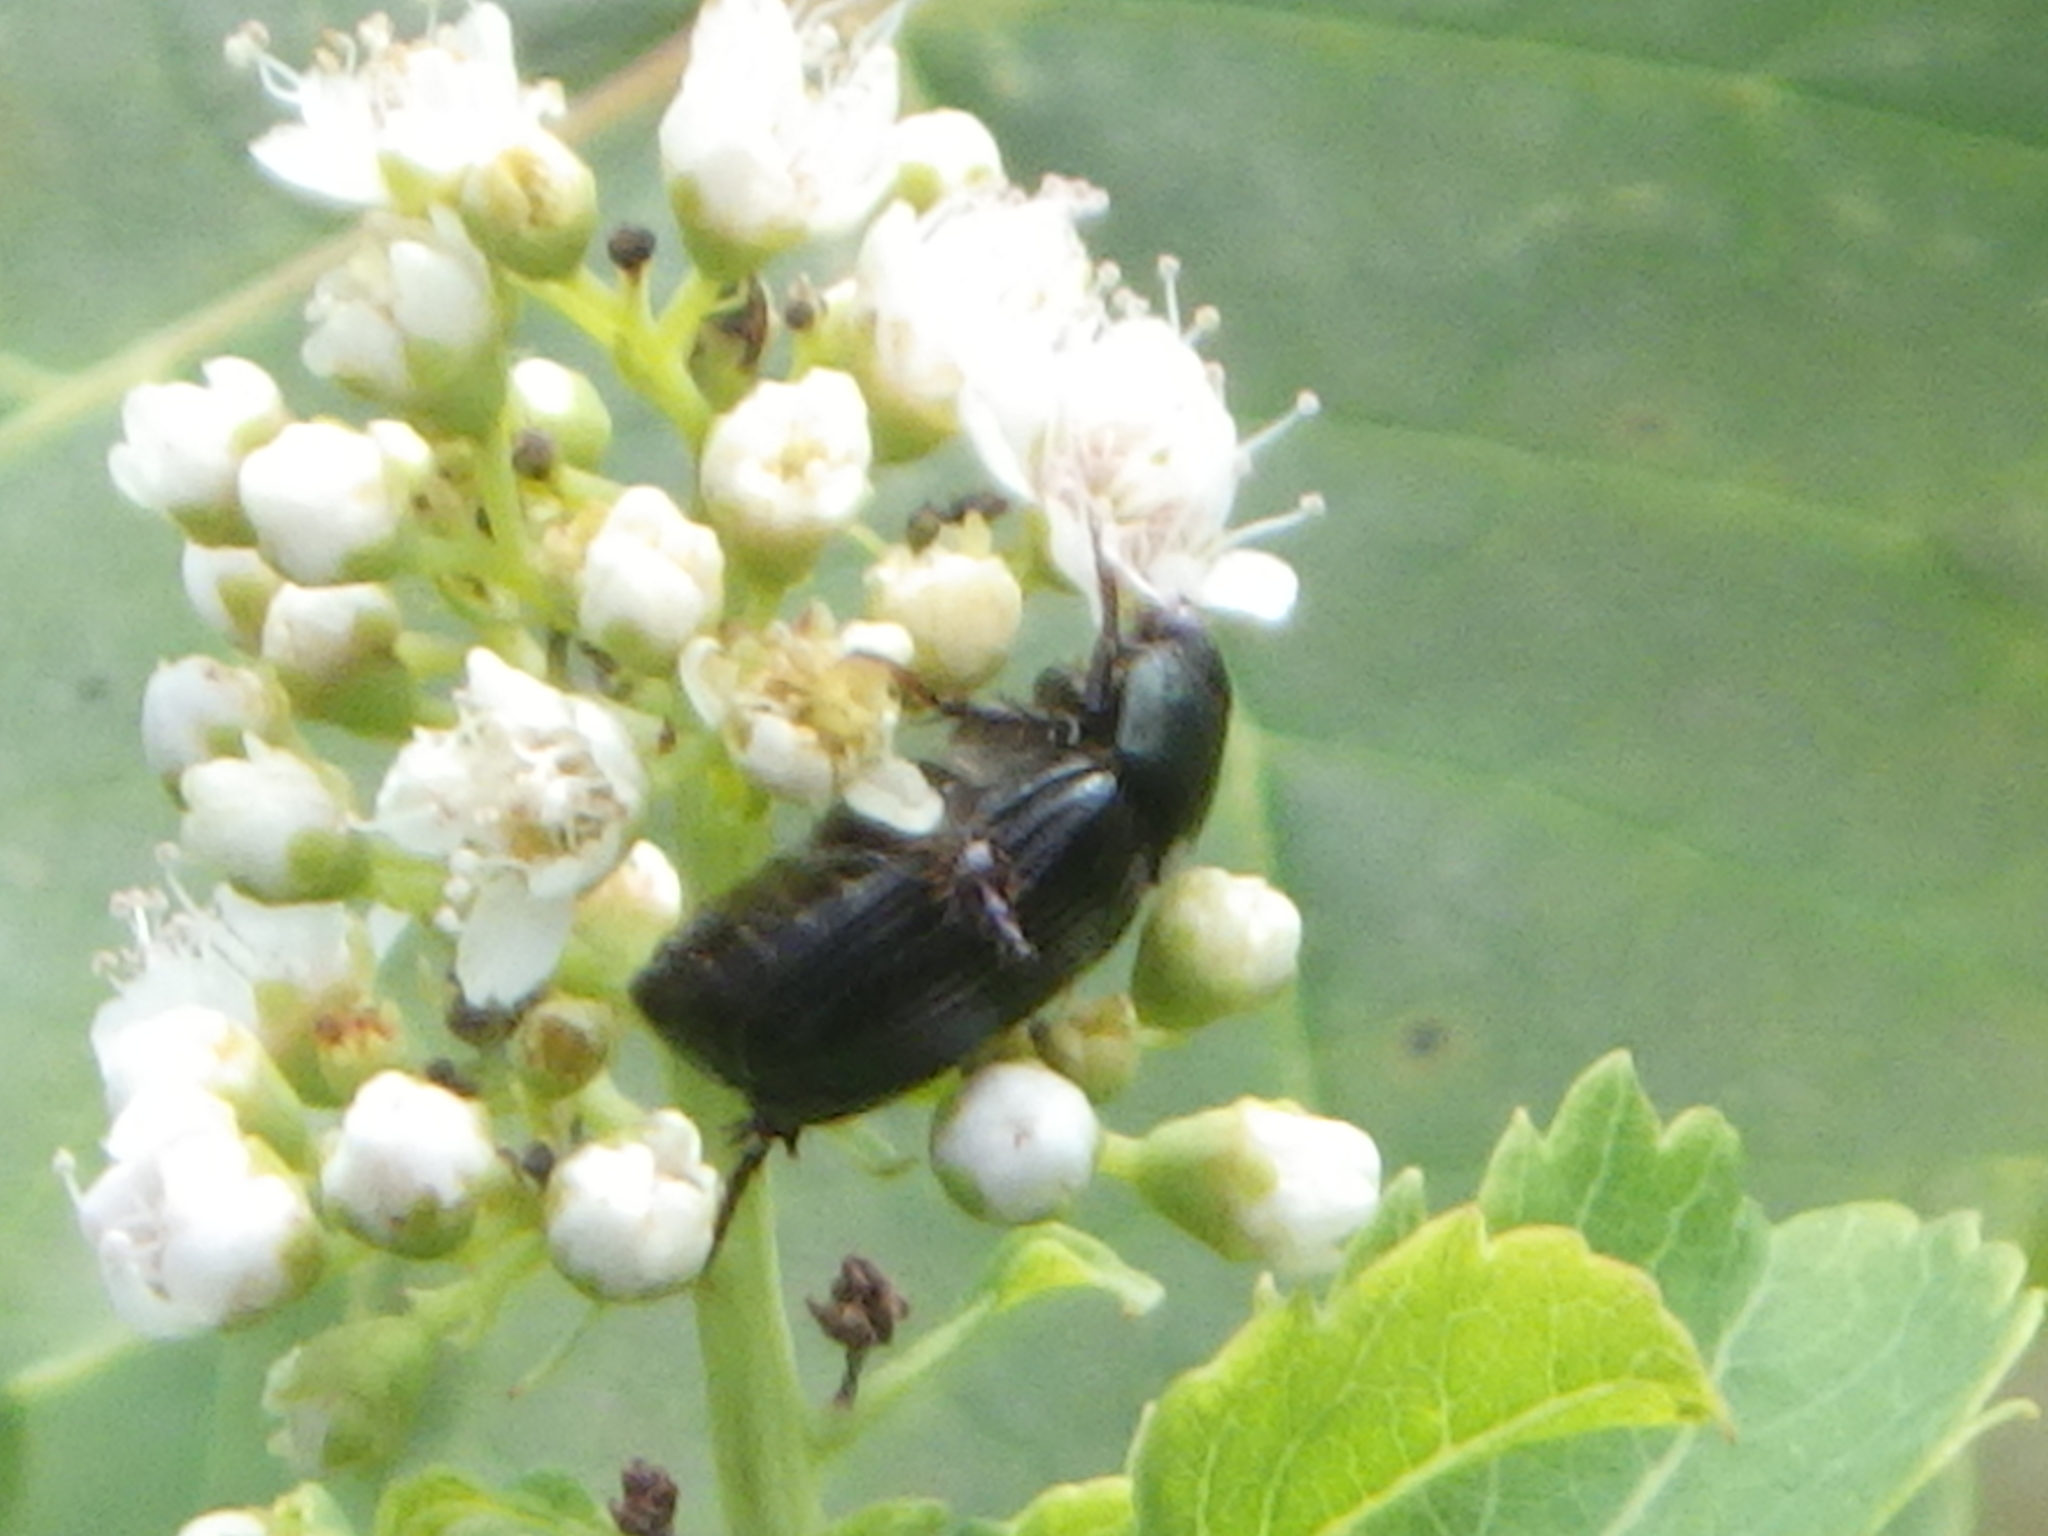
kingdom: Animalia
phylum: Arthropoda
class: Insecta
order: Coleoptera
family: Scarabaeidae
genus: Popillia
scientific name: Popillia japonica
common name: Japanese beetle
